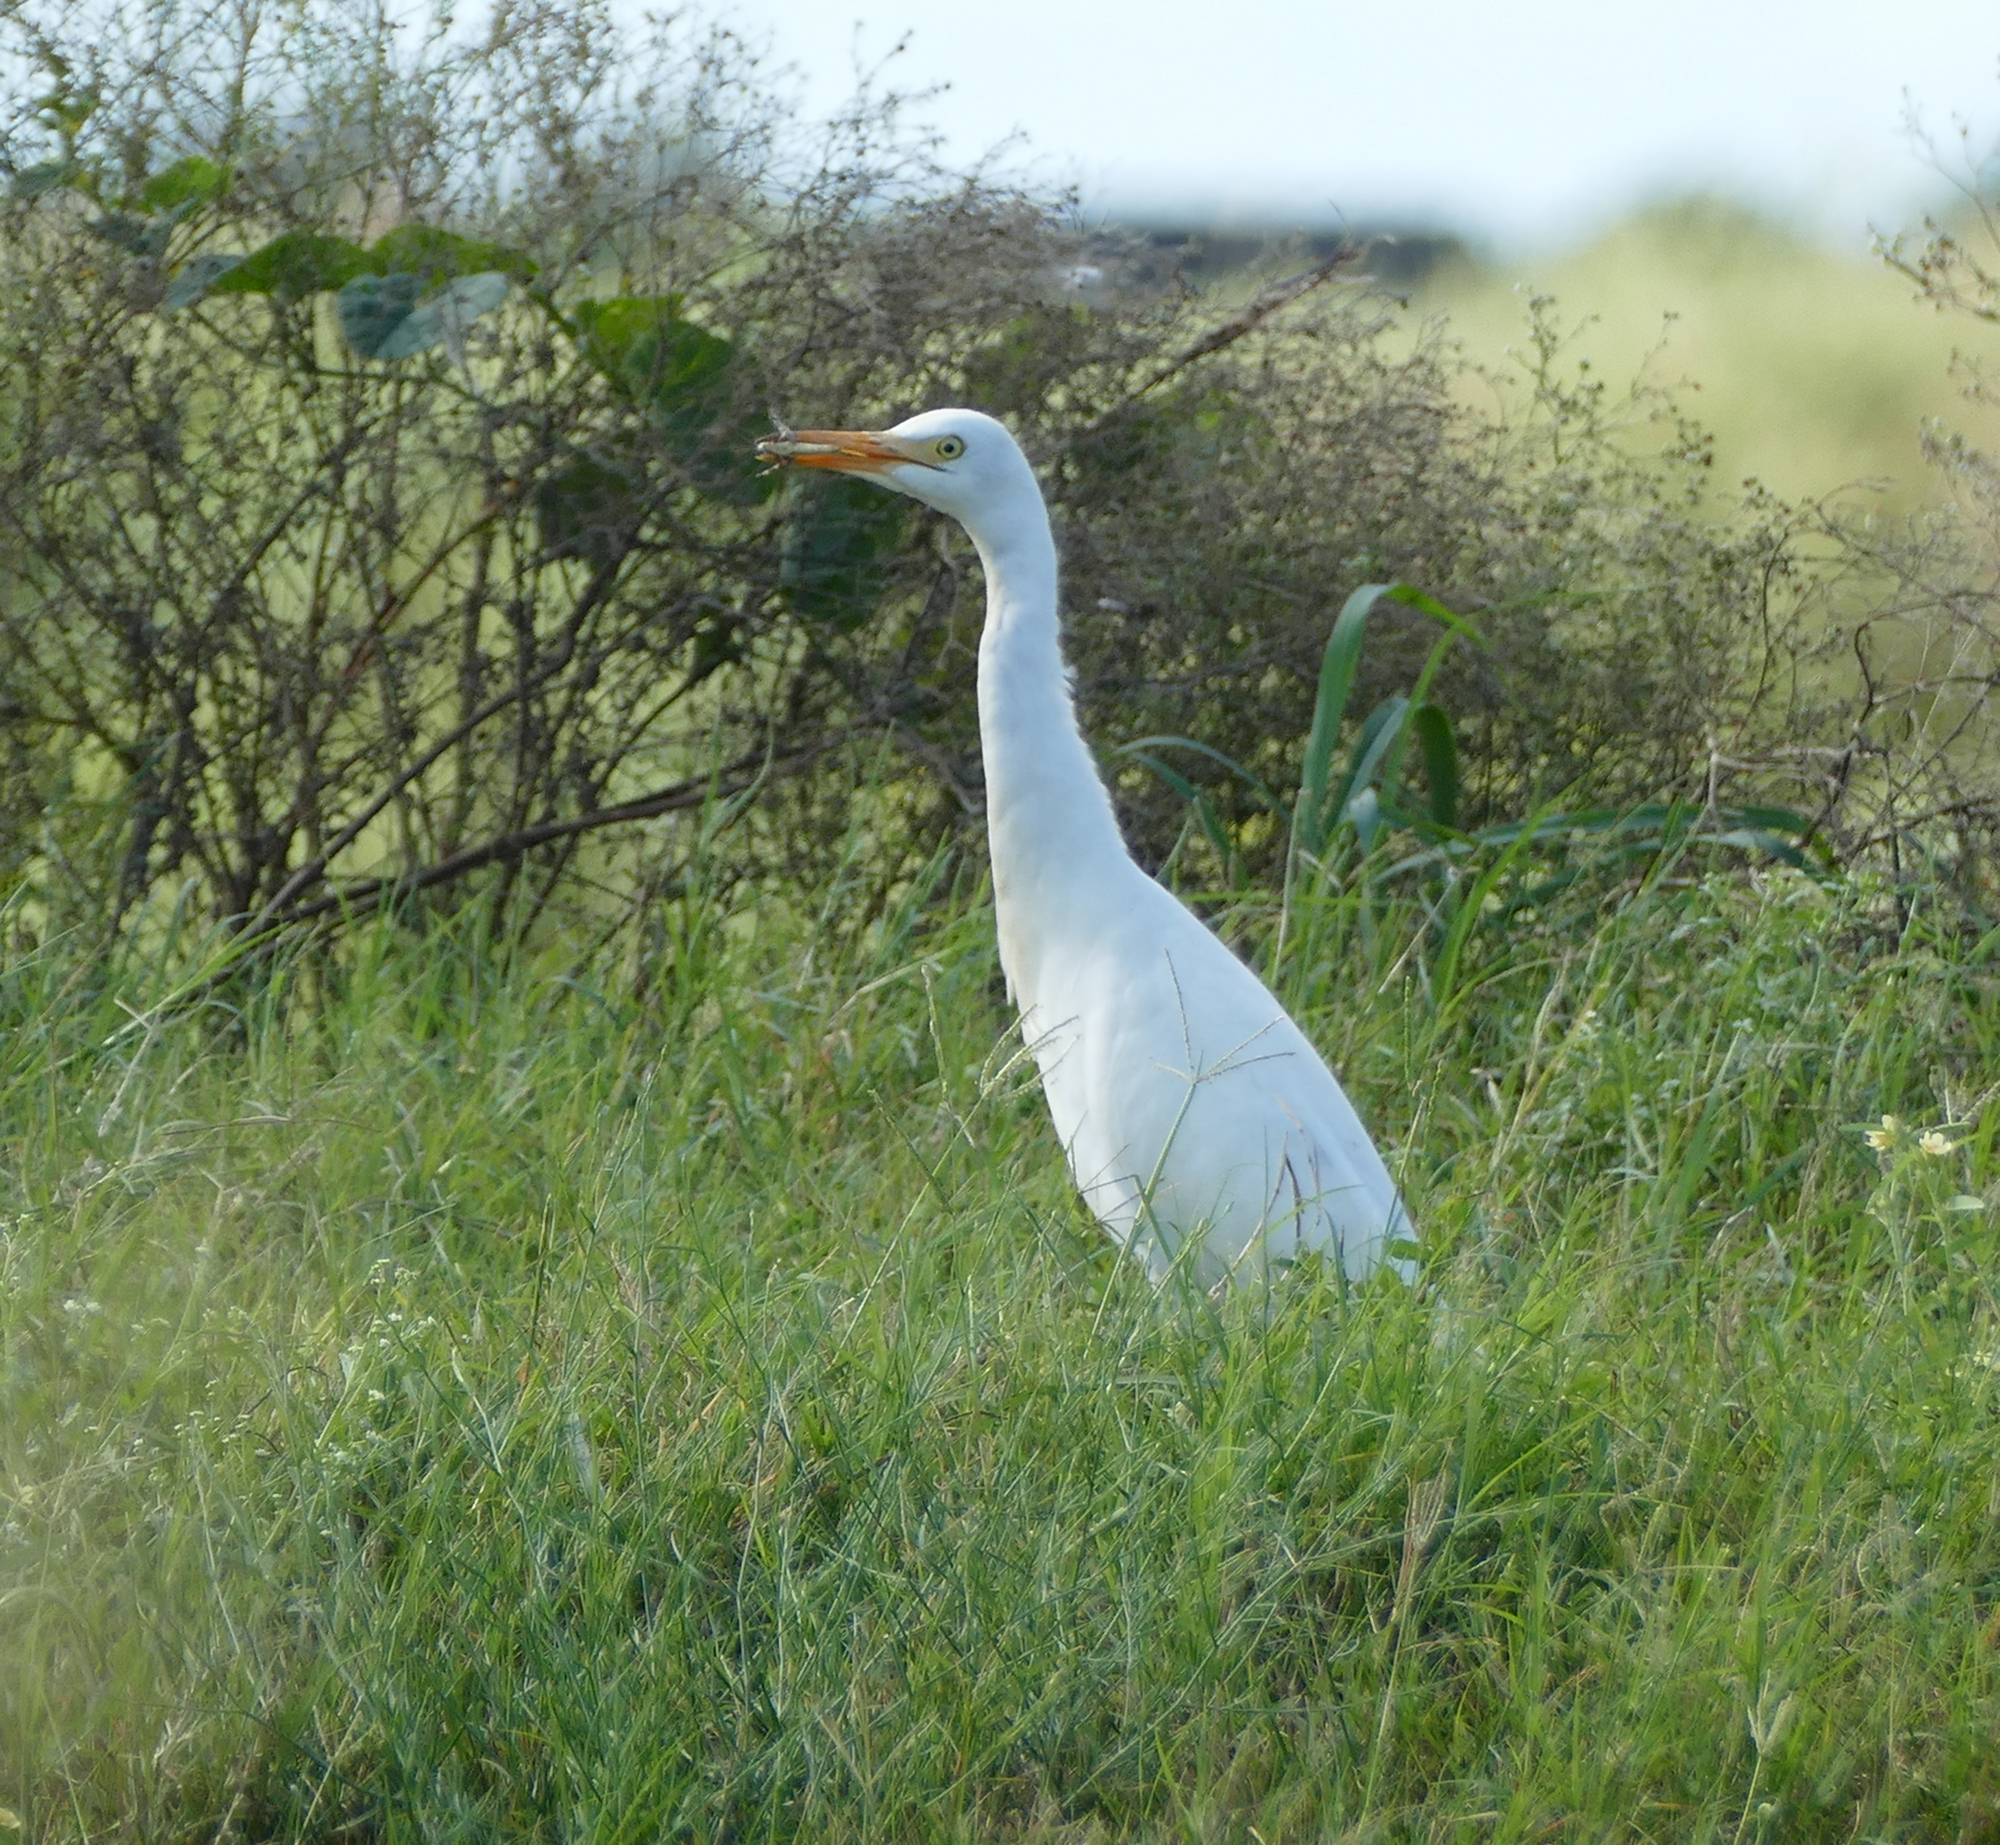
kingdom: Animalia
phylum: Chordata
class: Aves
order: Pelecaniformes
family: Ardeidae
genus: Bubulcus
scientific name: Bubulcus ibis
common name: Cattle egret
